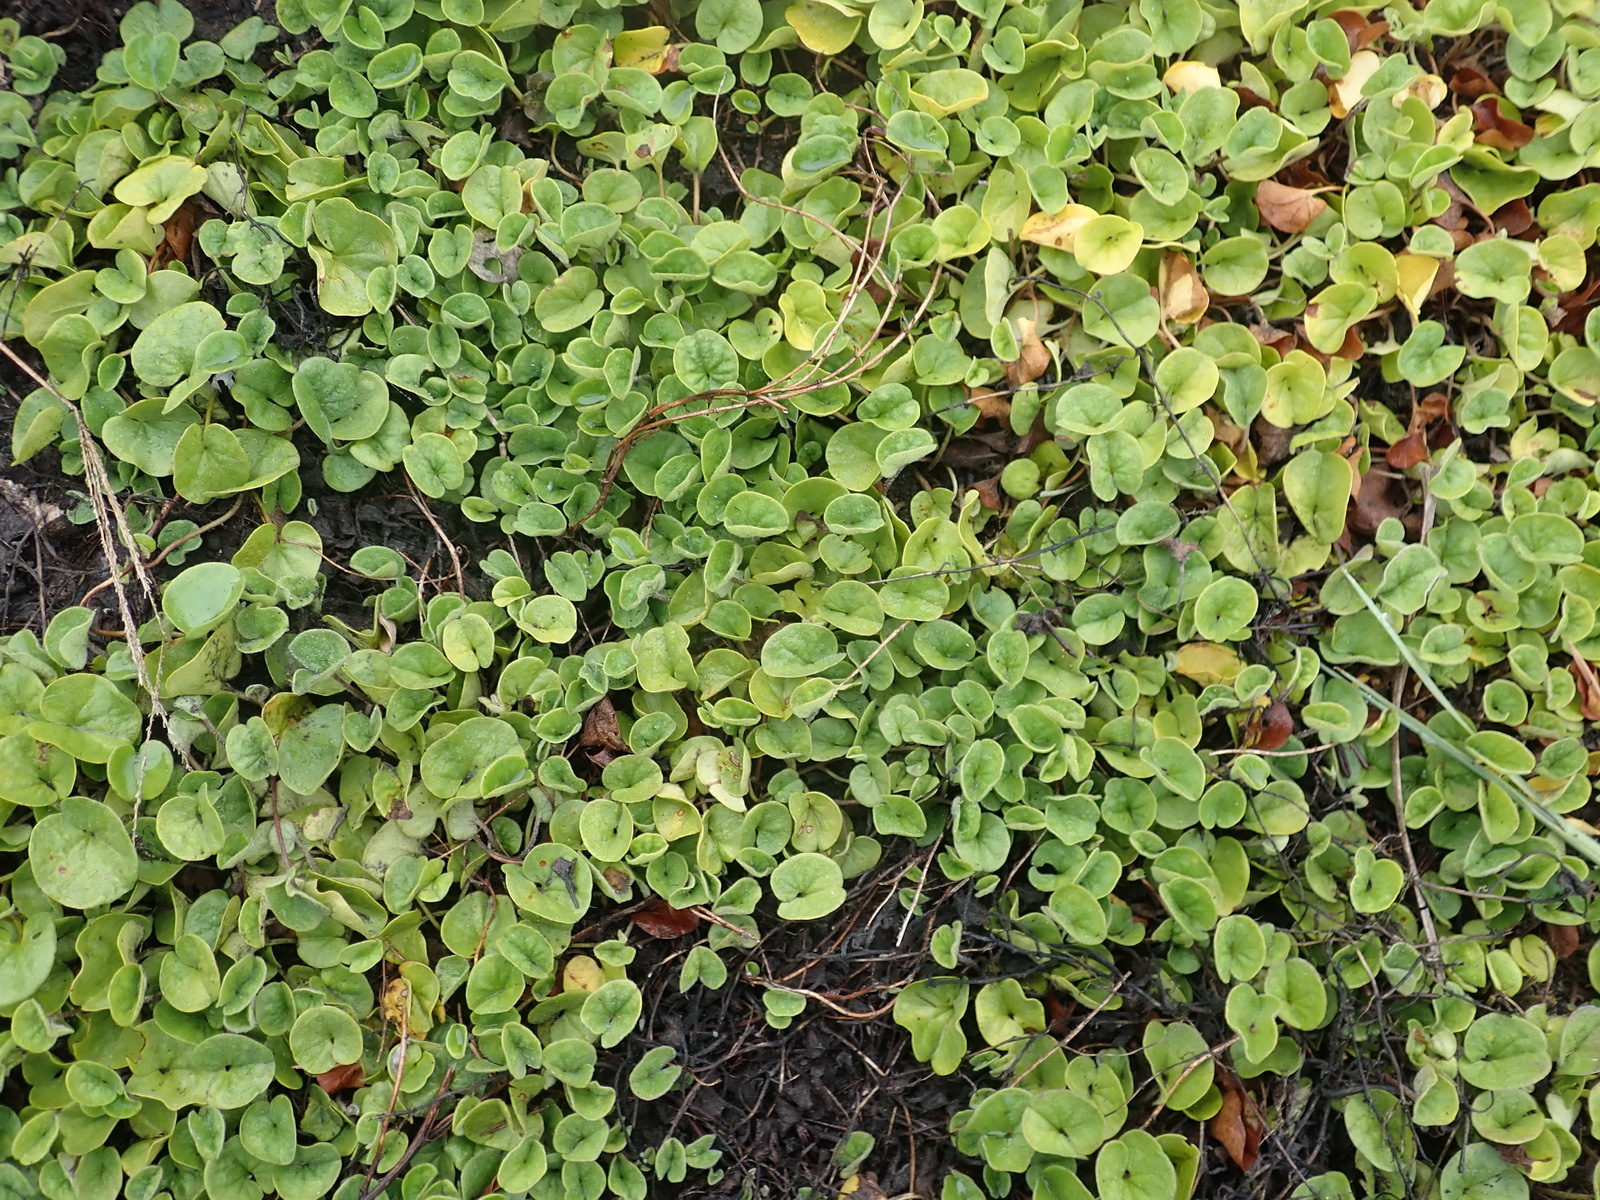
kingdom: Plantae
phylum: Tracheophyta
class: Magnoliopsida
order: Solanales
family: Convolvulaceae
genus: Dichondra
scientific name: Dichondra micrantha
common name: Kidneyweed
